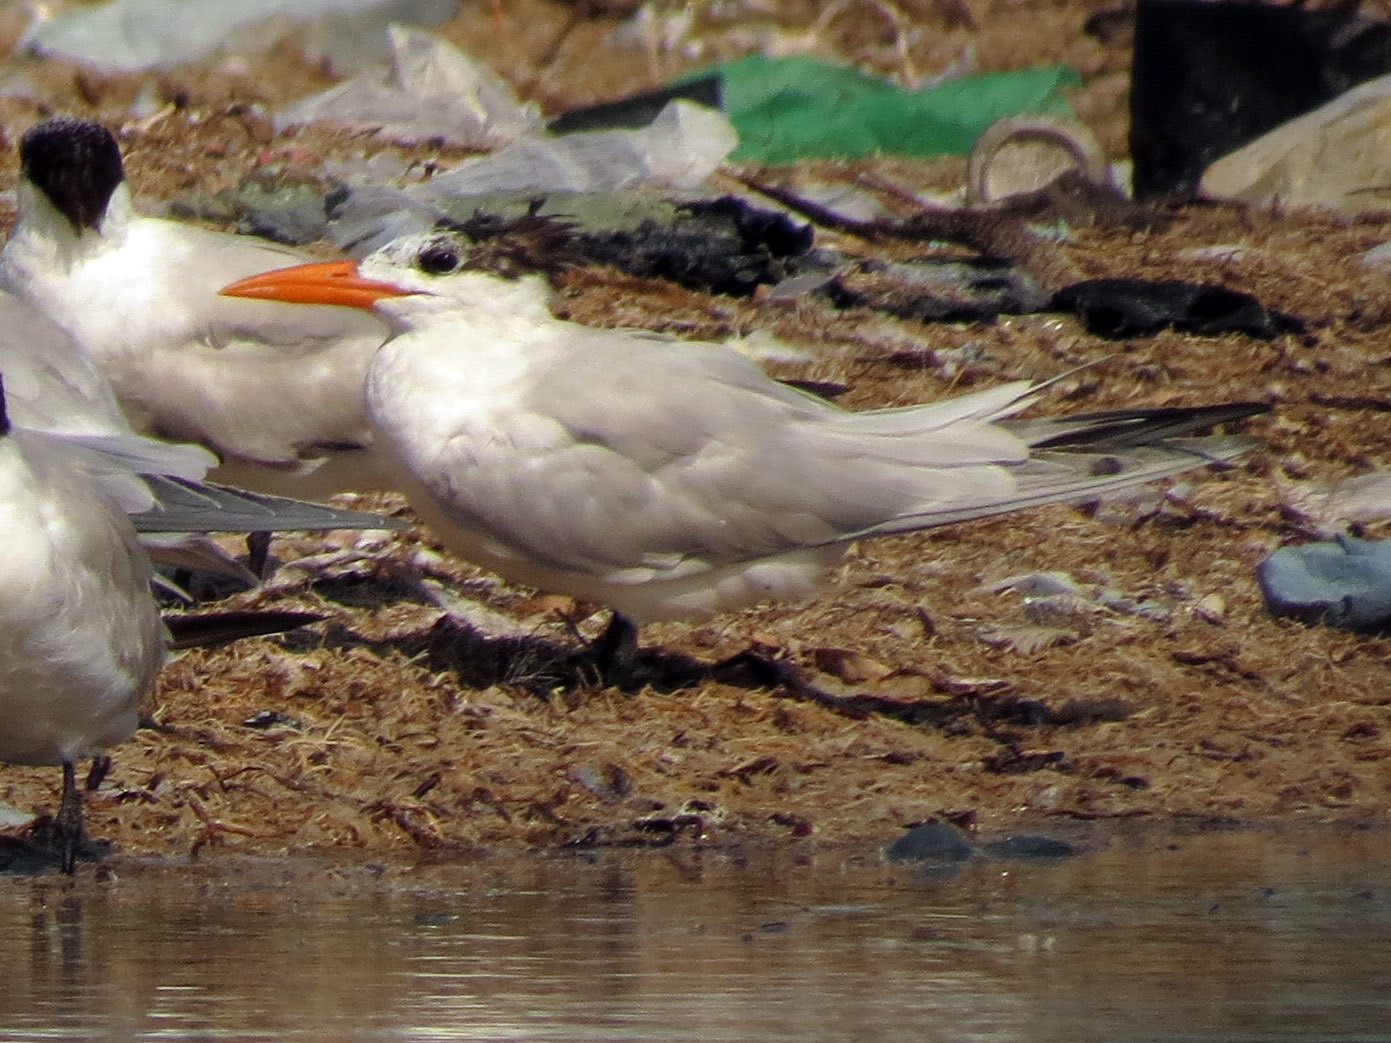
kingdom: Animalia
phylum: Chordata
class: Aves
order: Charadriiformes
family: Laridae
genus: Thalasseus
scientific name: Thalasseus maximus
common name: Royal tern
